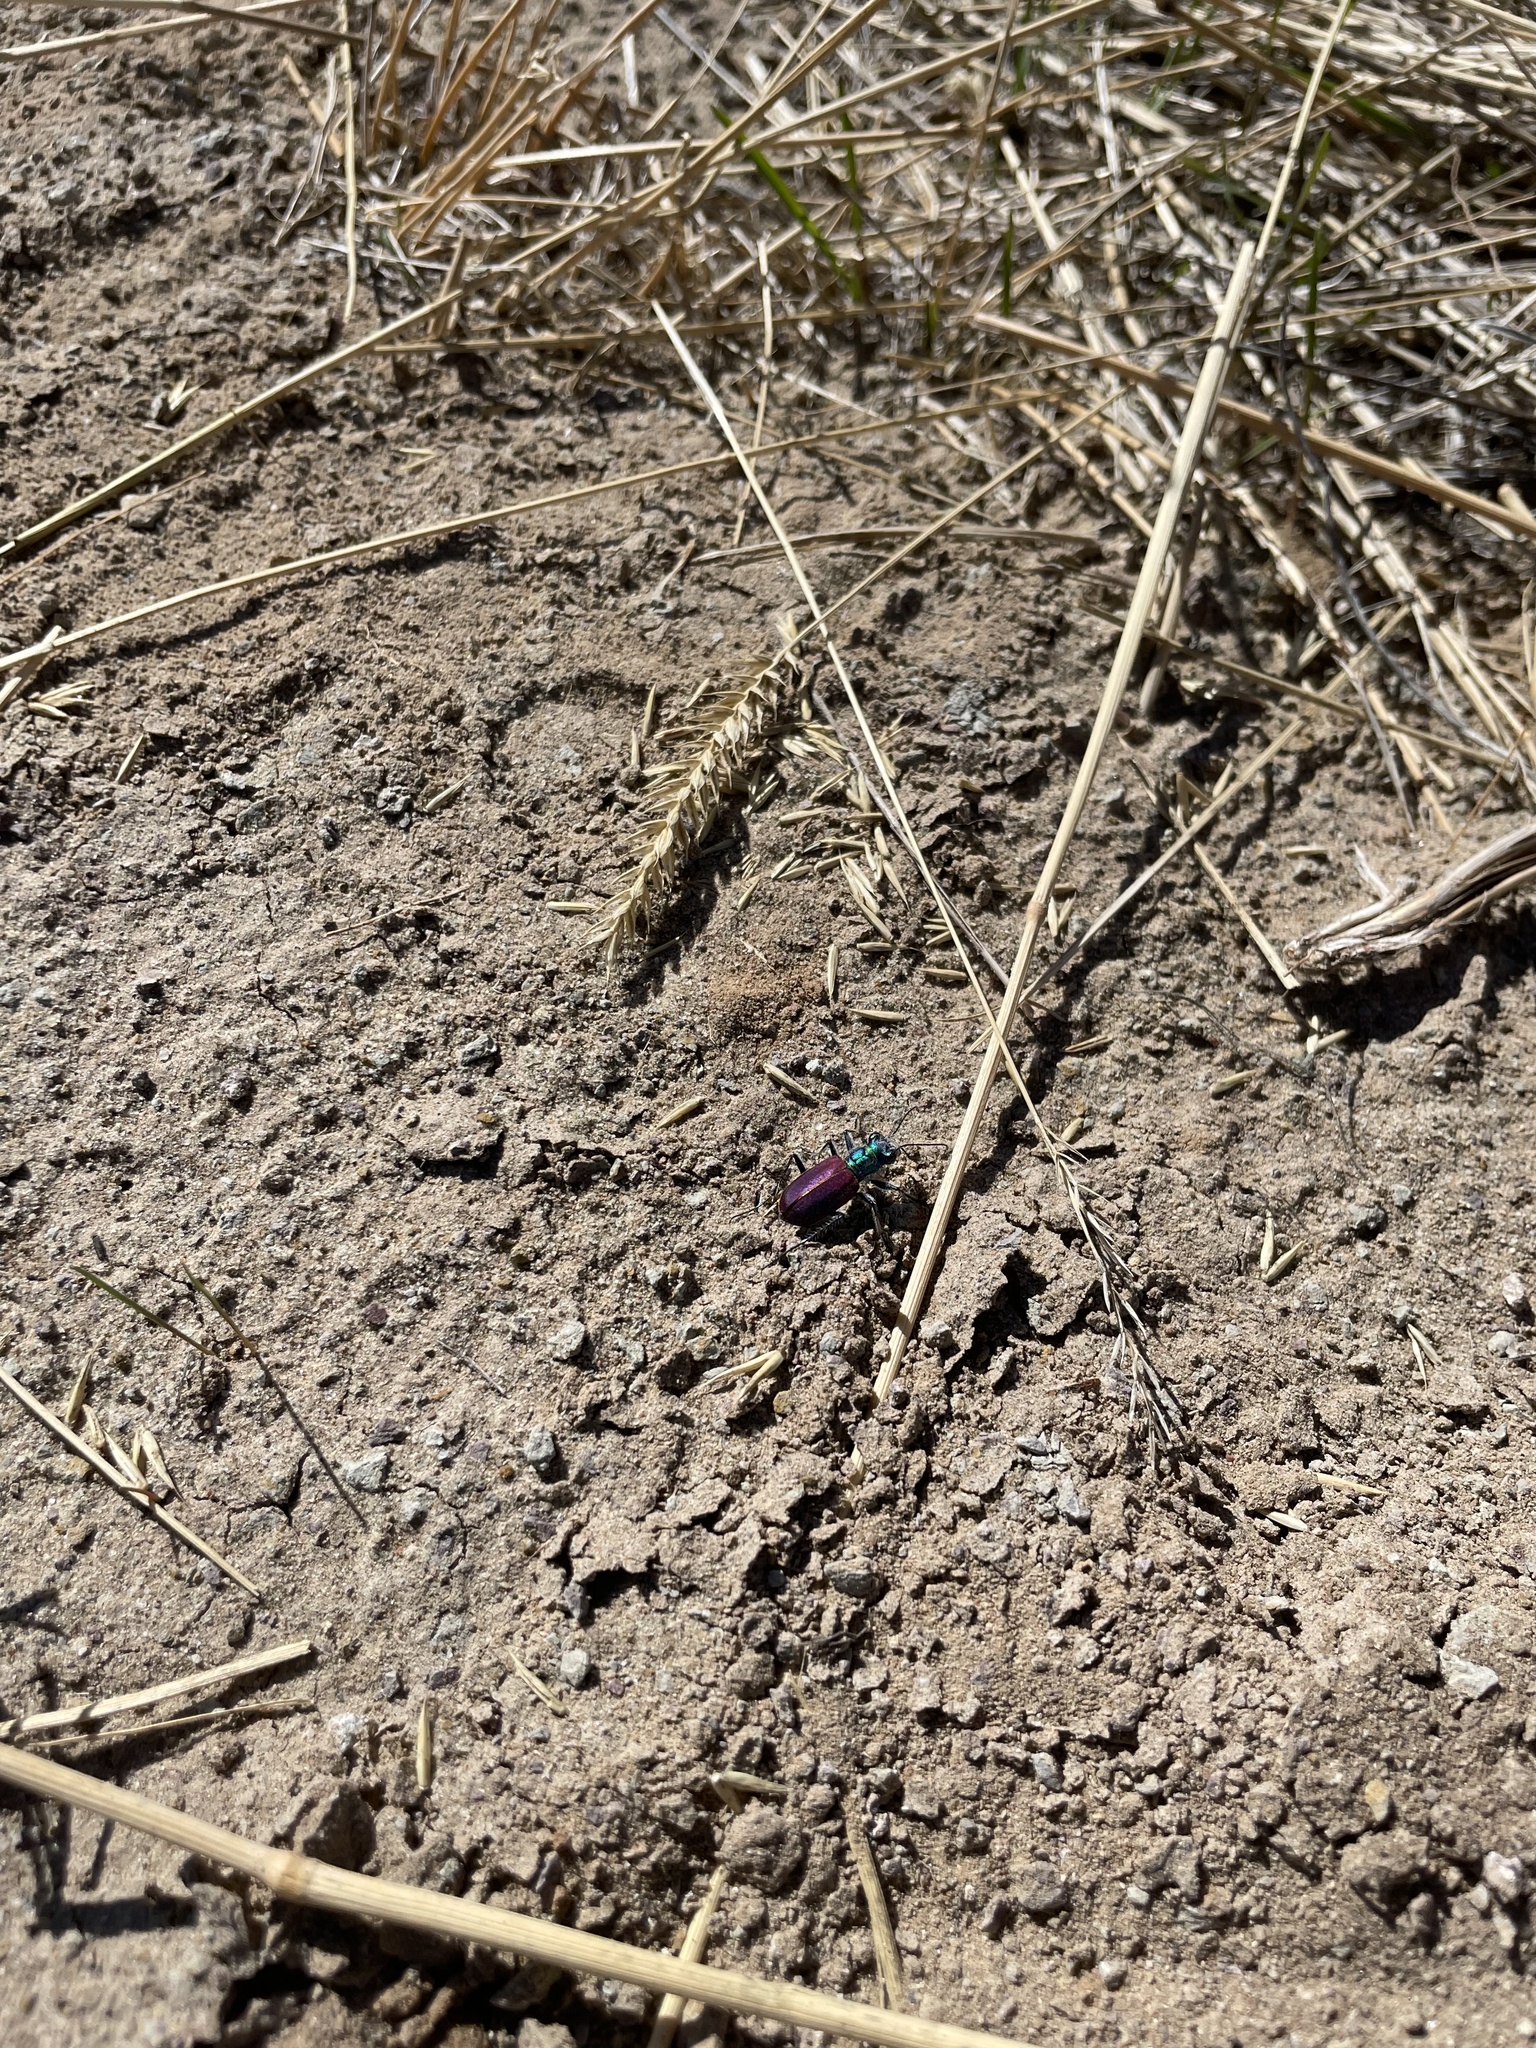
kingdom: Animalia
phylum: Arthropoda
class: Insecta
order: Coleoptera
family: Carabidae
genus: Cicindela
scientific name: Cicindela scutellaris
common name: Festive tiger beetle
